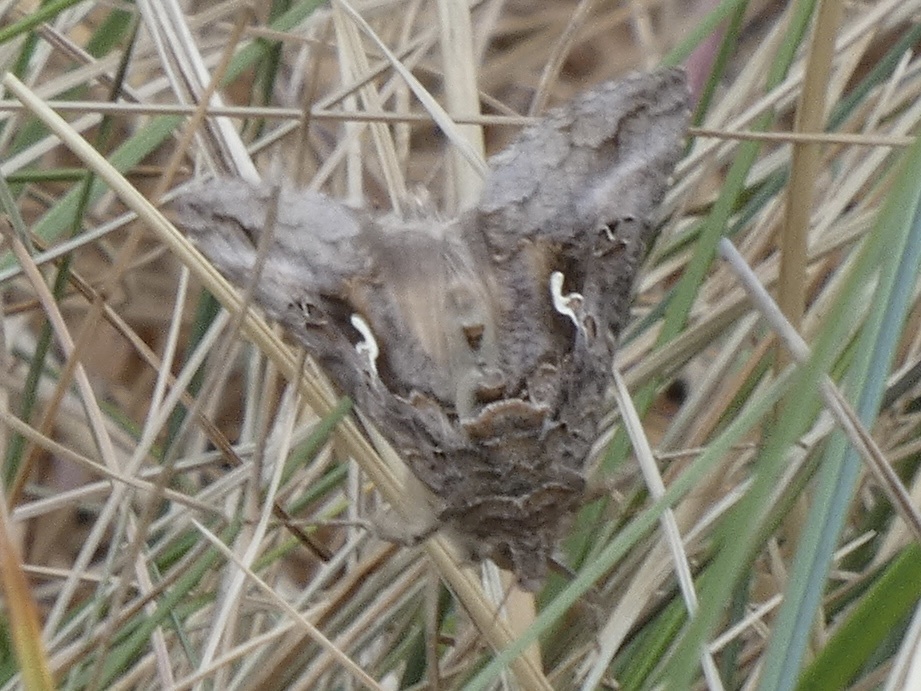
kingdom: Animalia
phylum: Arthropoda
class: Insecta
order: Lepidoptera
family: Noctuidae
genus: Autographa
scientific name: Autographa gamma
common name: Silver y
